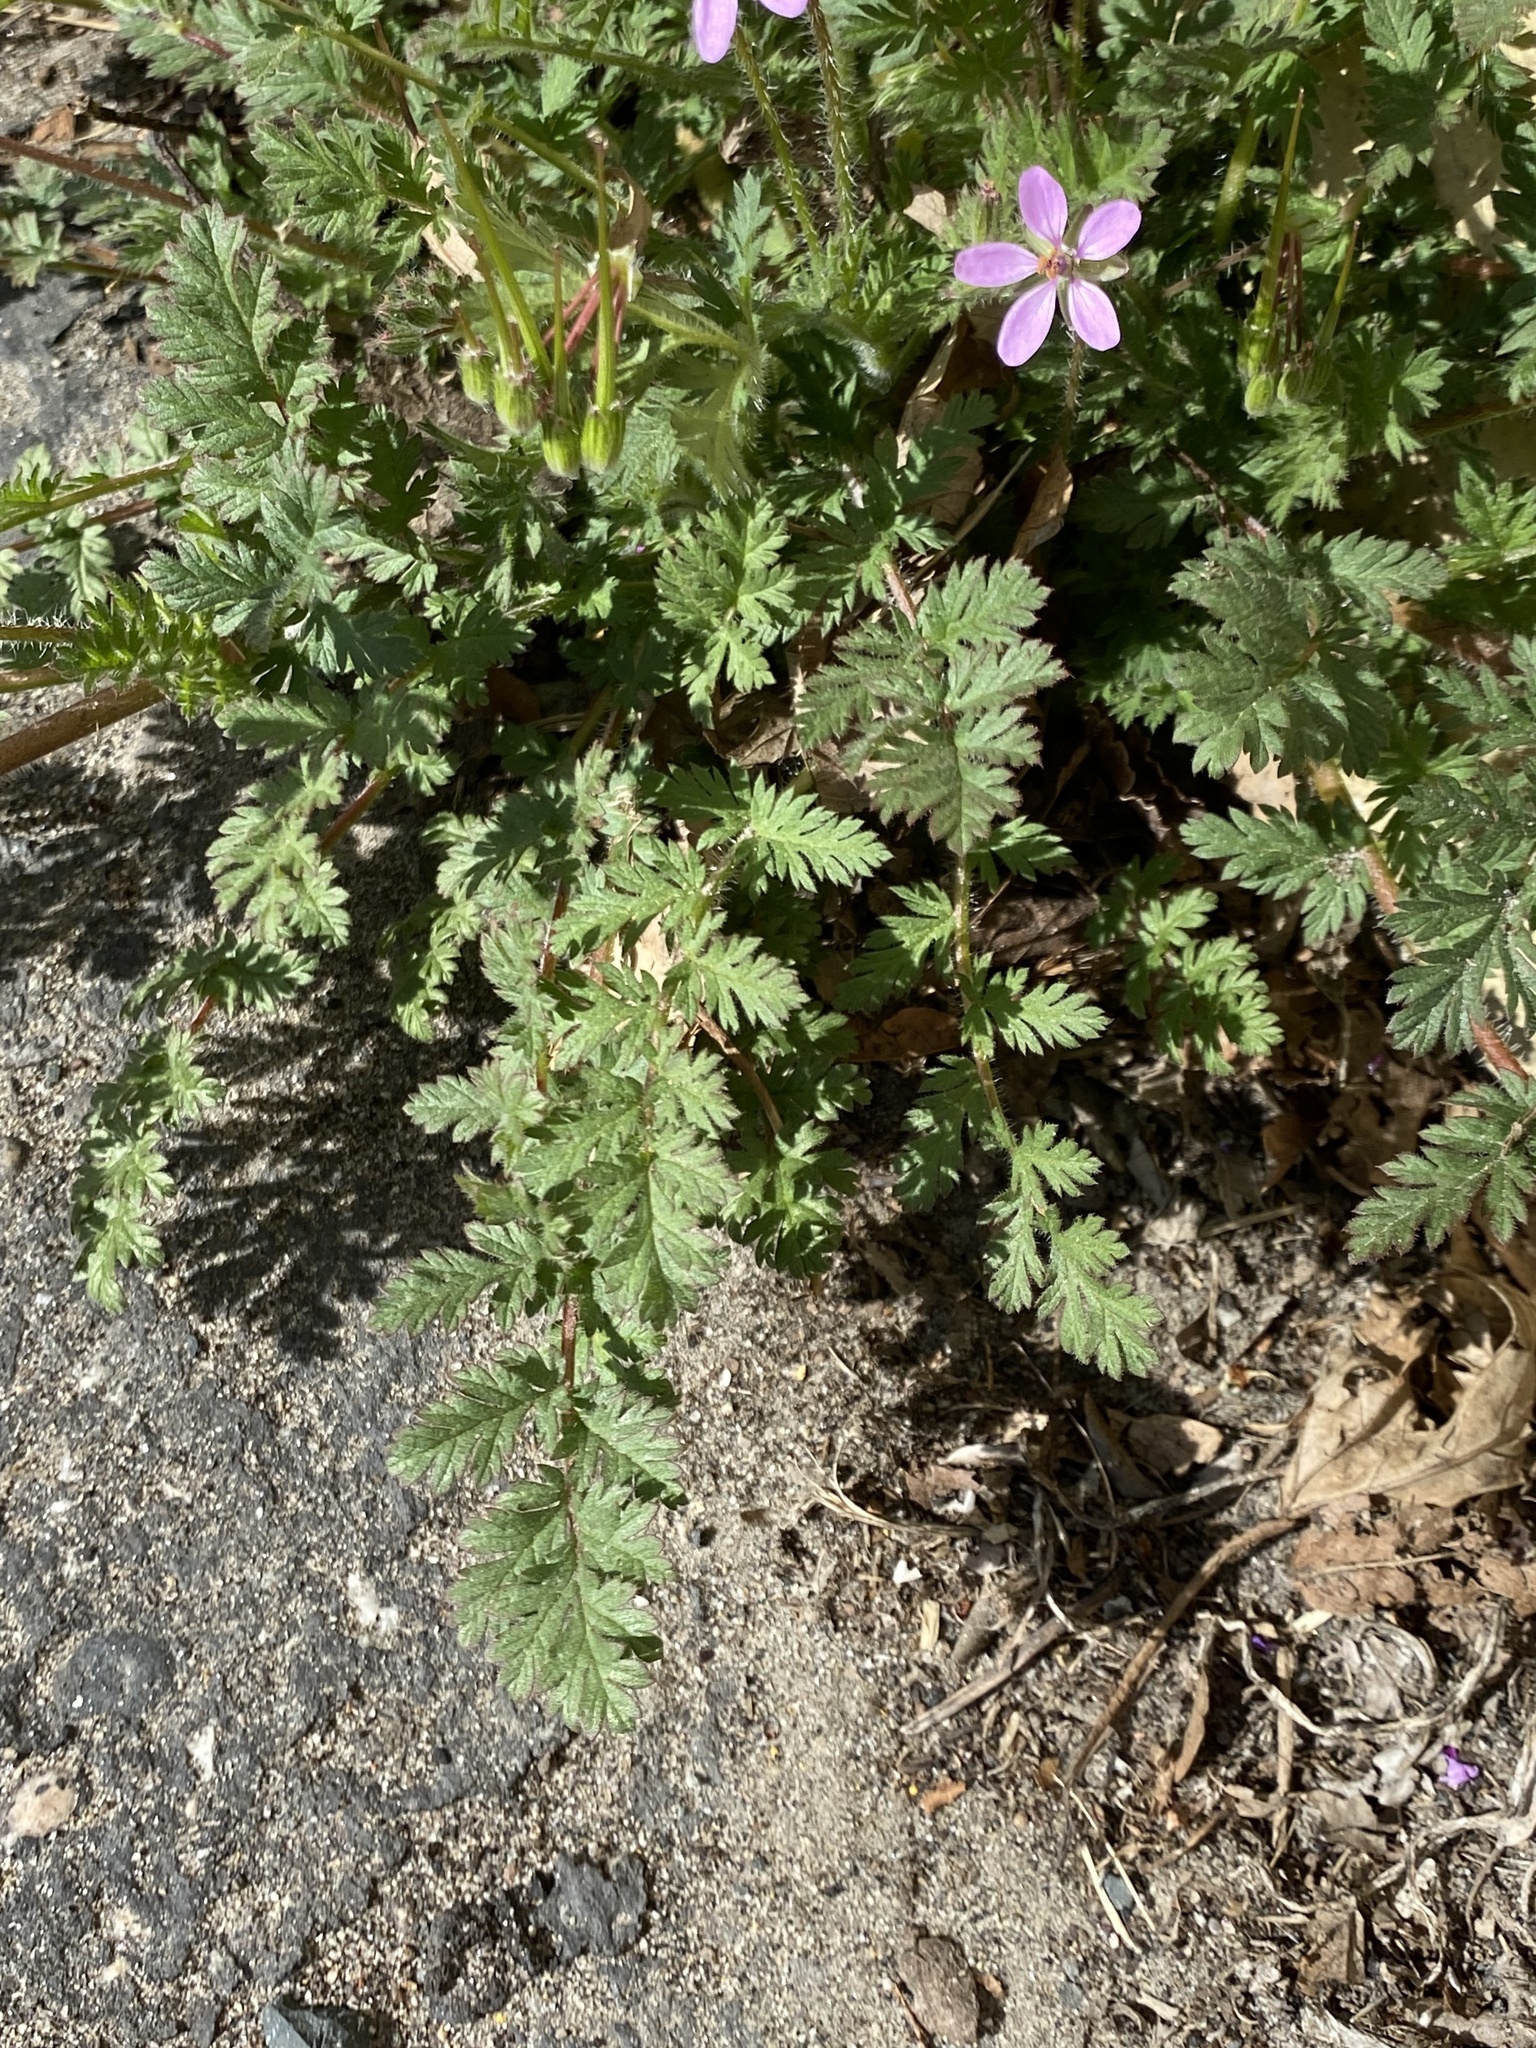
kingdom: Plantae
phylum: Tracheophyta
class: Magnoliopsida
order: Geraniales
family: Geraniaceae
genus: Erodium
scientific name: Erodium cicutarium
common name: Common stork's-bill
